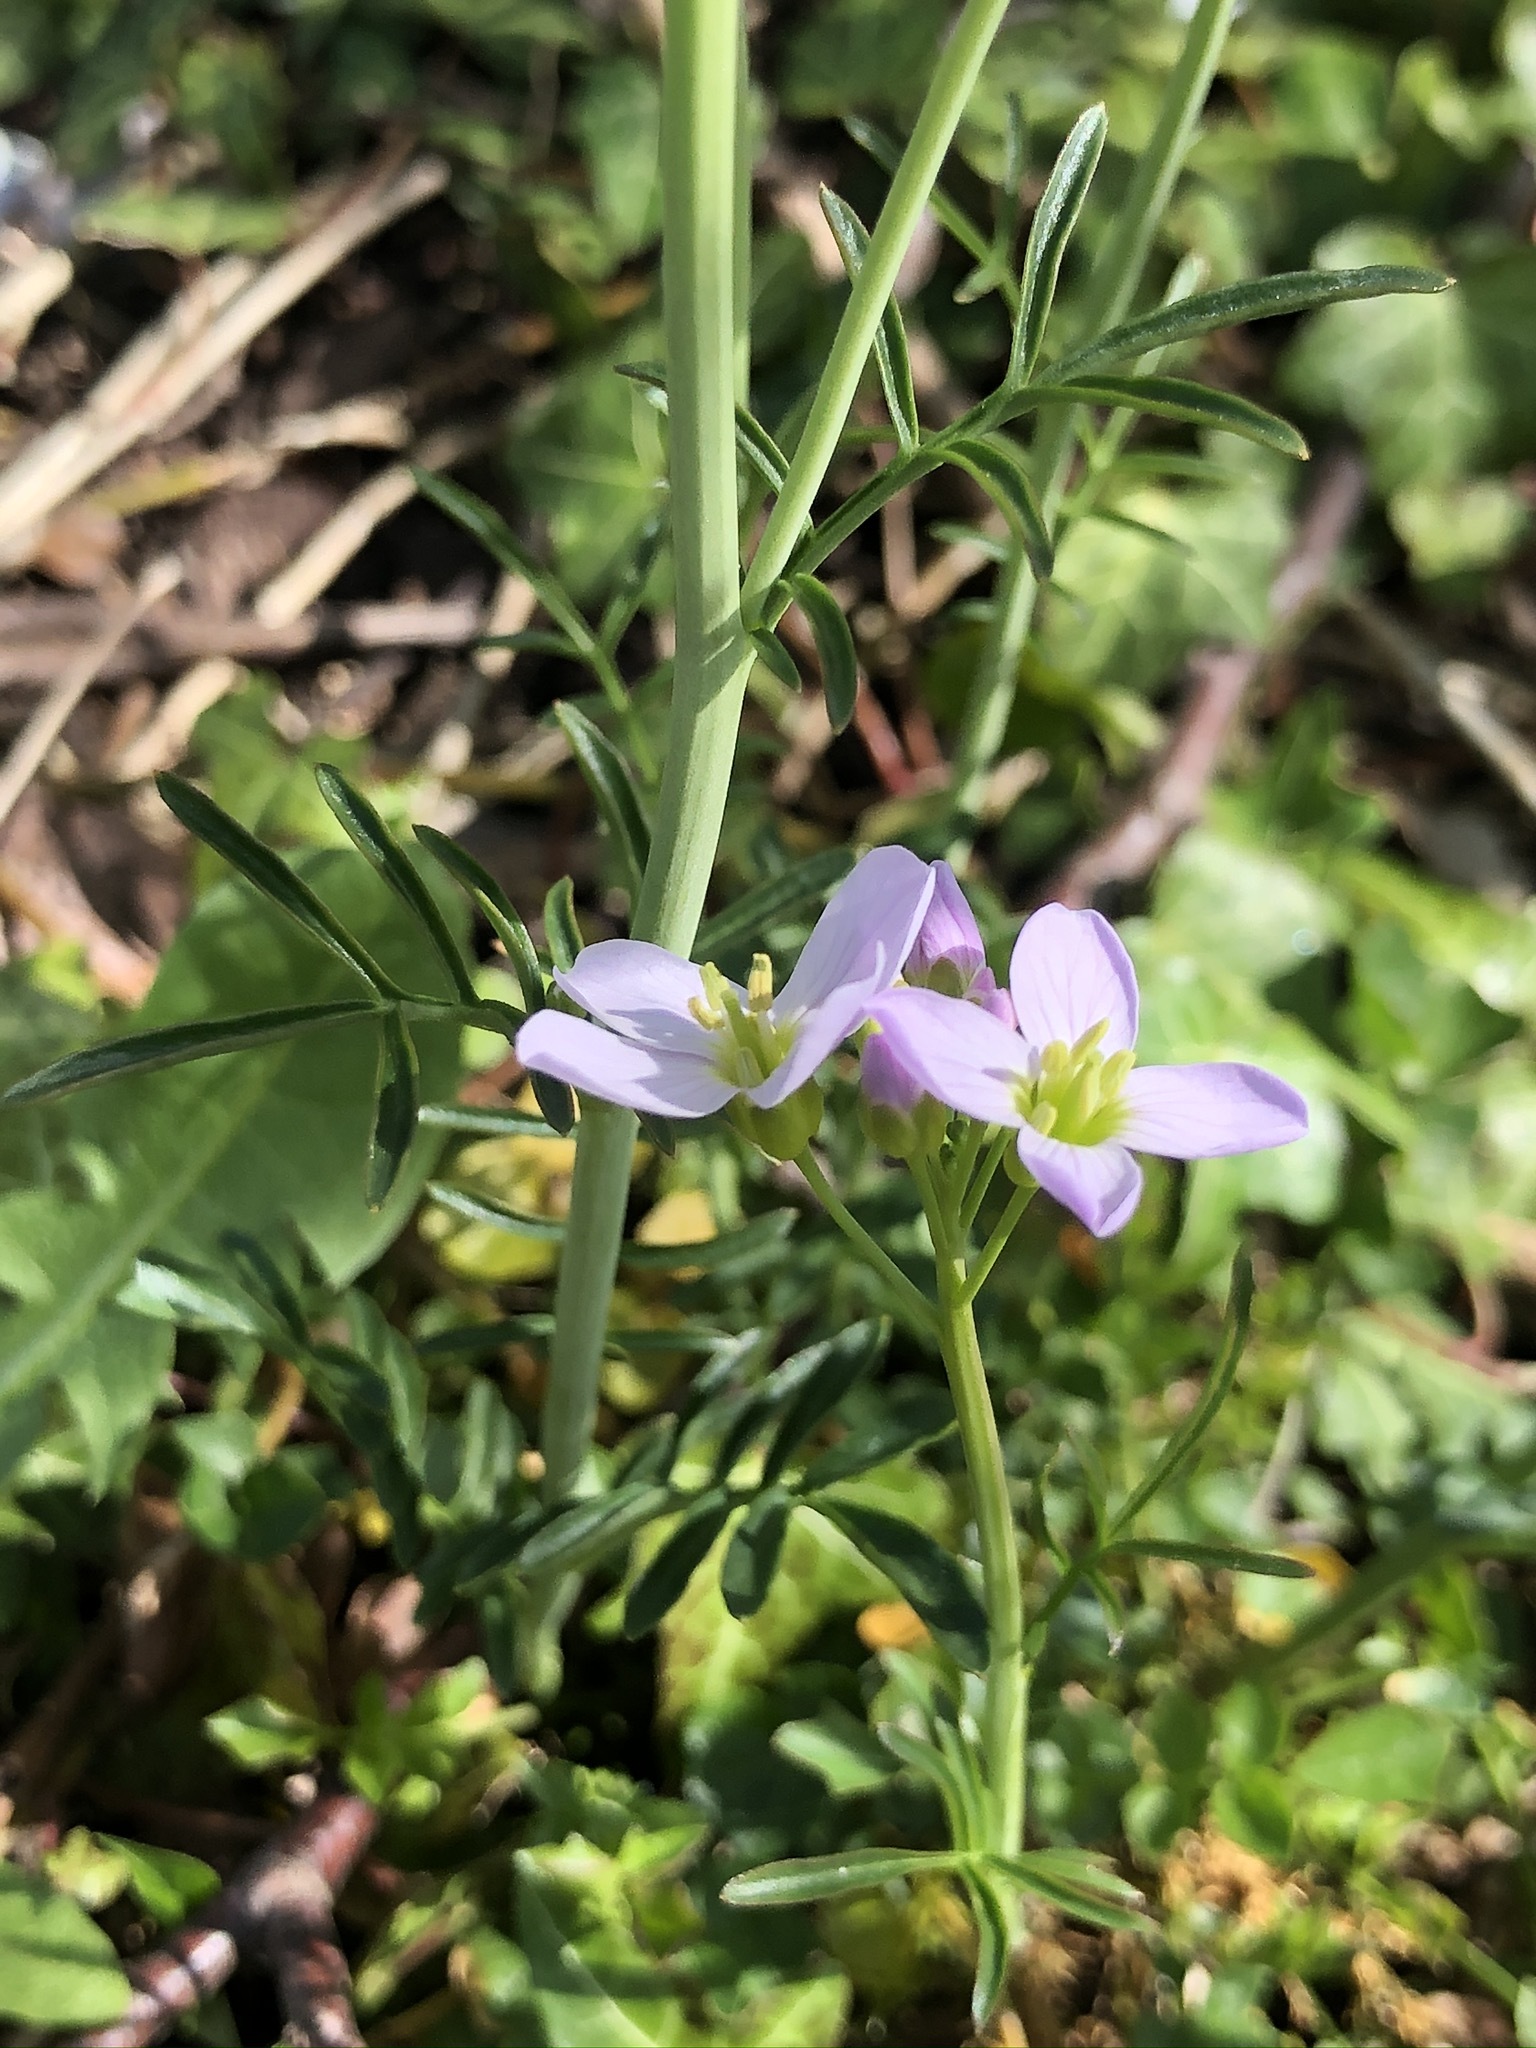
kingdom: Plantae
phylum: Tracheophyta
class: Magnoliopsida
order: Brassicales
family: Brassicaceae
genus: Cardamine
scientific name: Cardamine pratensis
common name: Cuckoo flower
